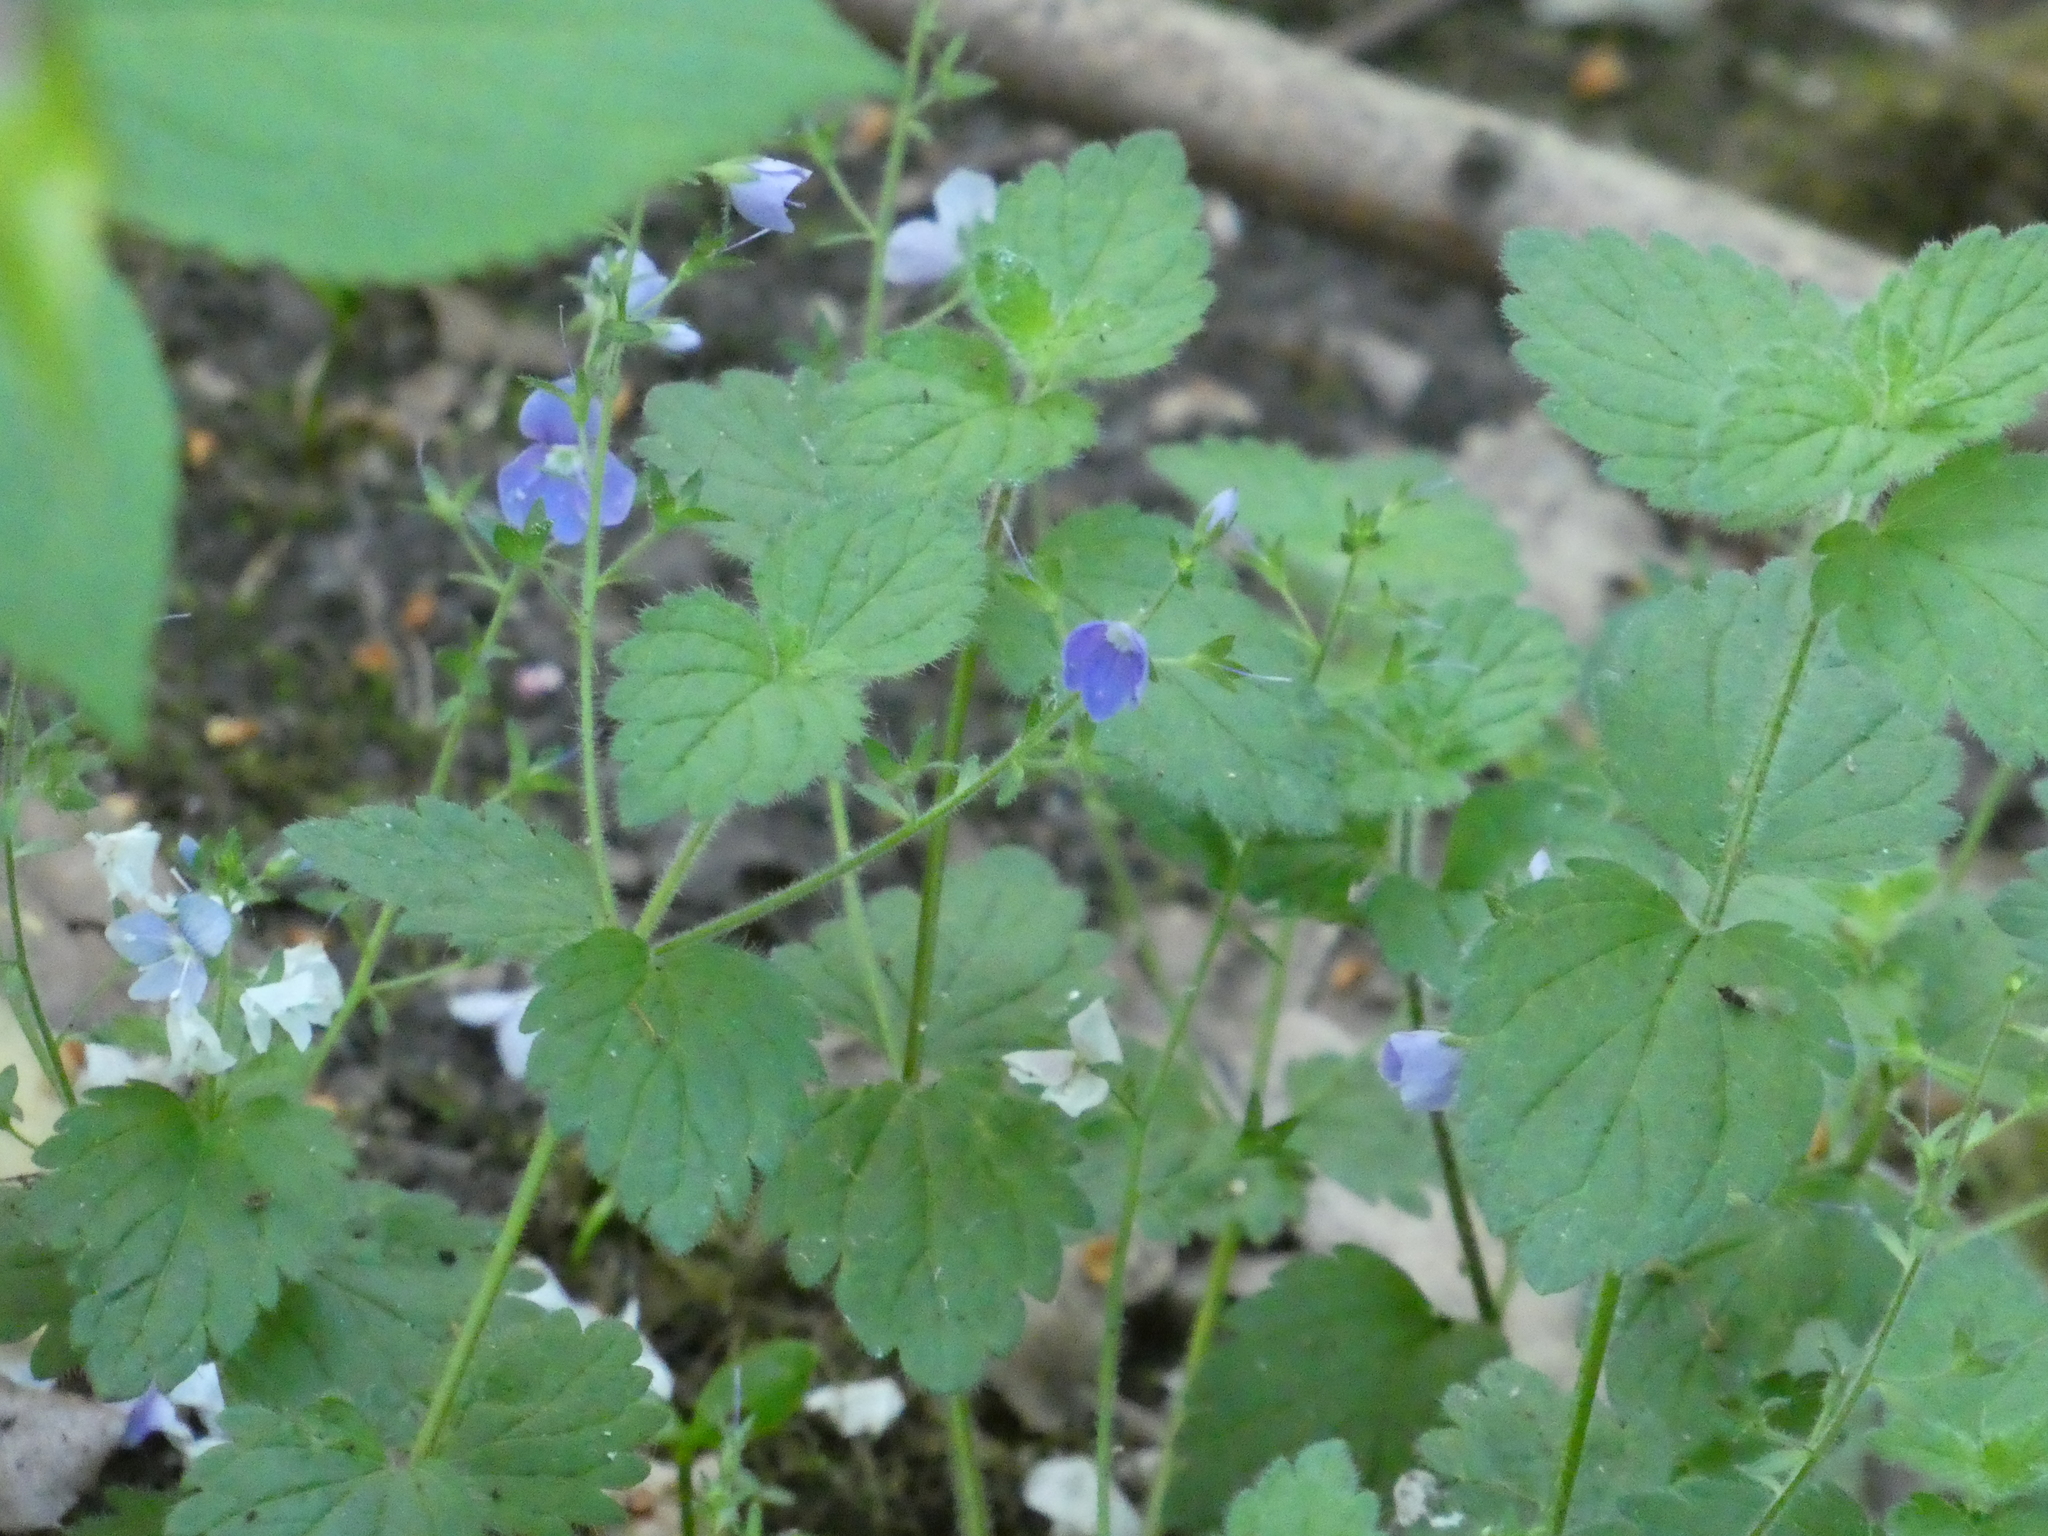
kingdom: Plantae
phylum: Tracheophyta
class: Magnoliopsida
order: Lamiales
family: Plantaginaceae
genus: Veronica
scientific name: Veronica chamaedrys
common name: Germander speedwell
